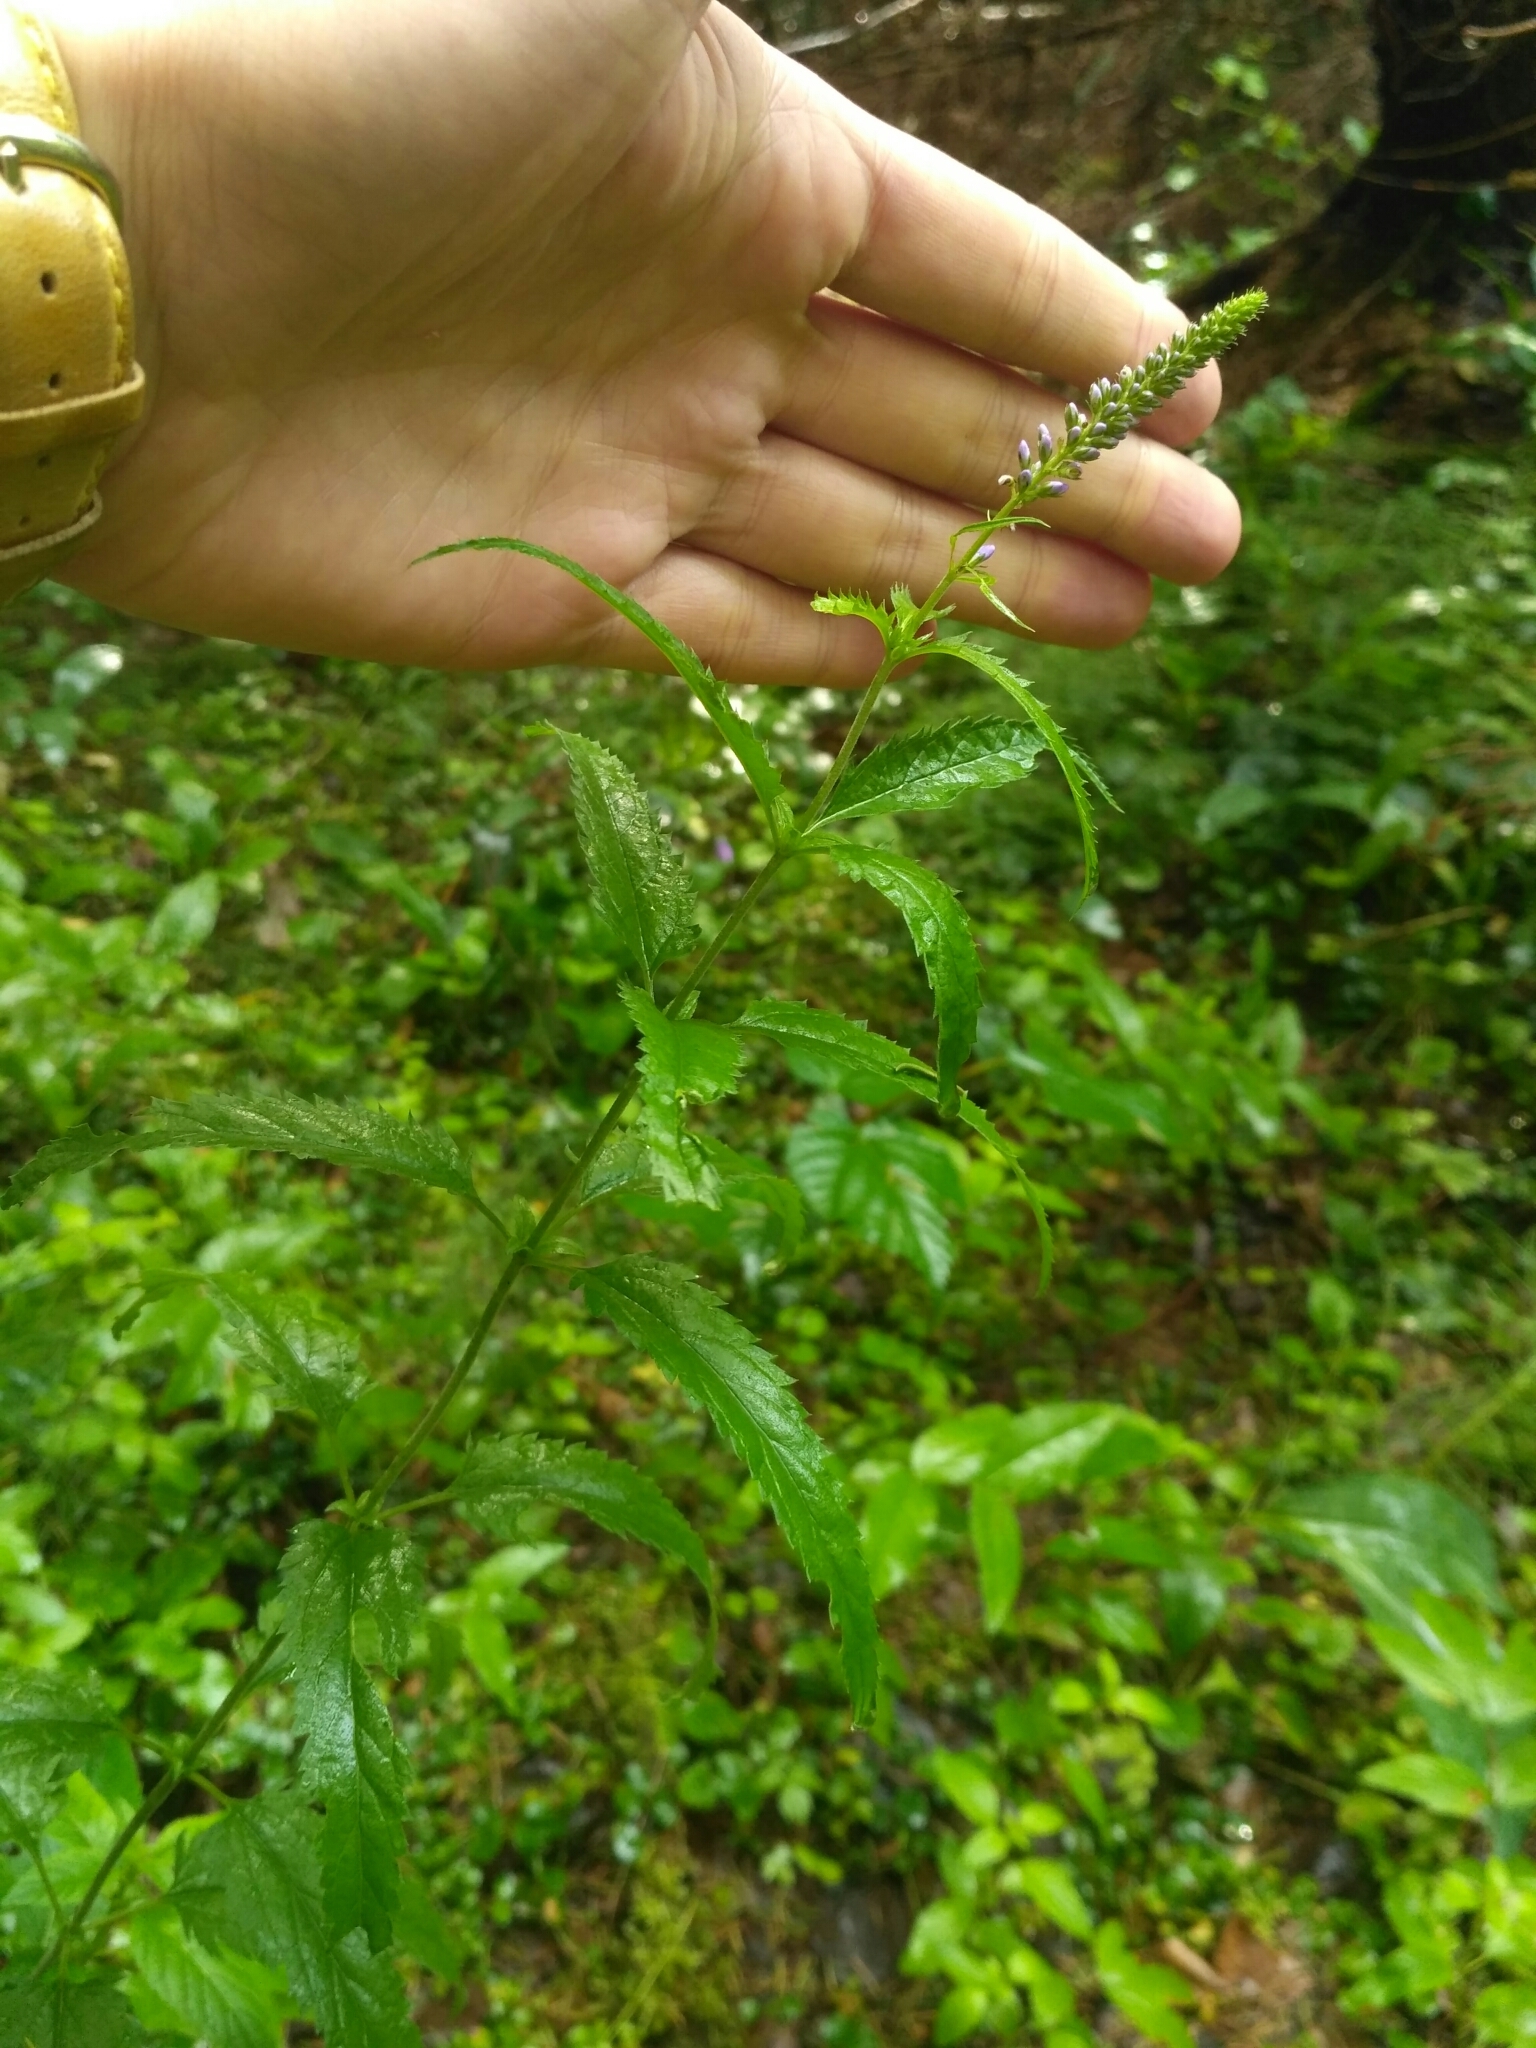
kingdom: Plantae
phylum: Tracheophyta
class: Magnoliopsida
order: Lamiales
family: Plantaginaceae
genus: Veronica
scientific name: Veronica longifolia
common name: Garden speedwell
